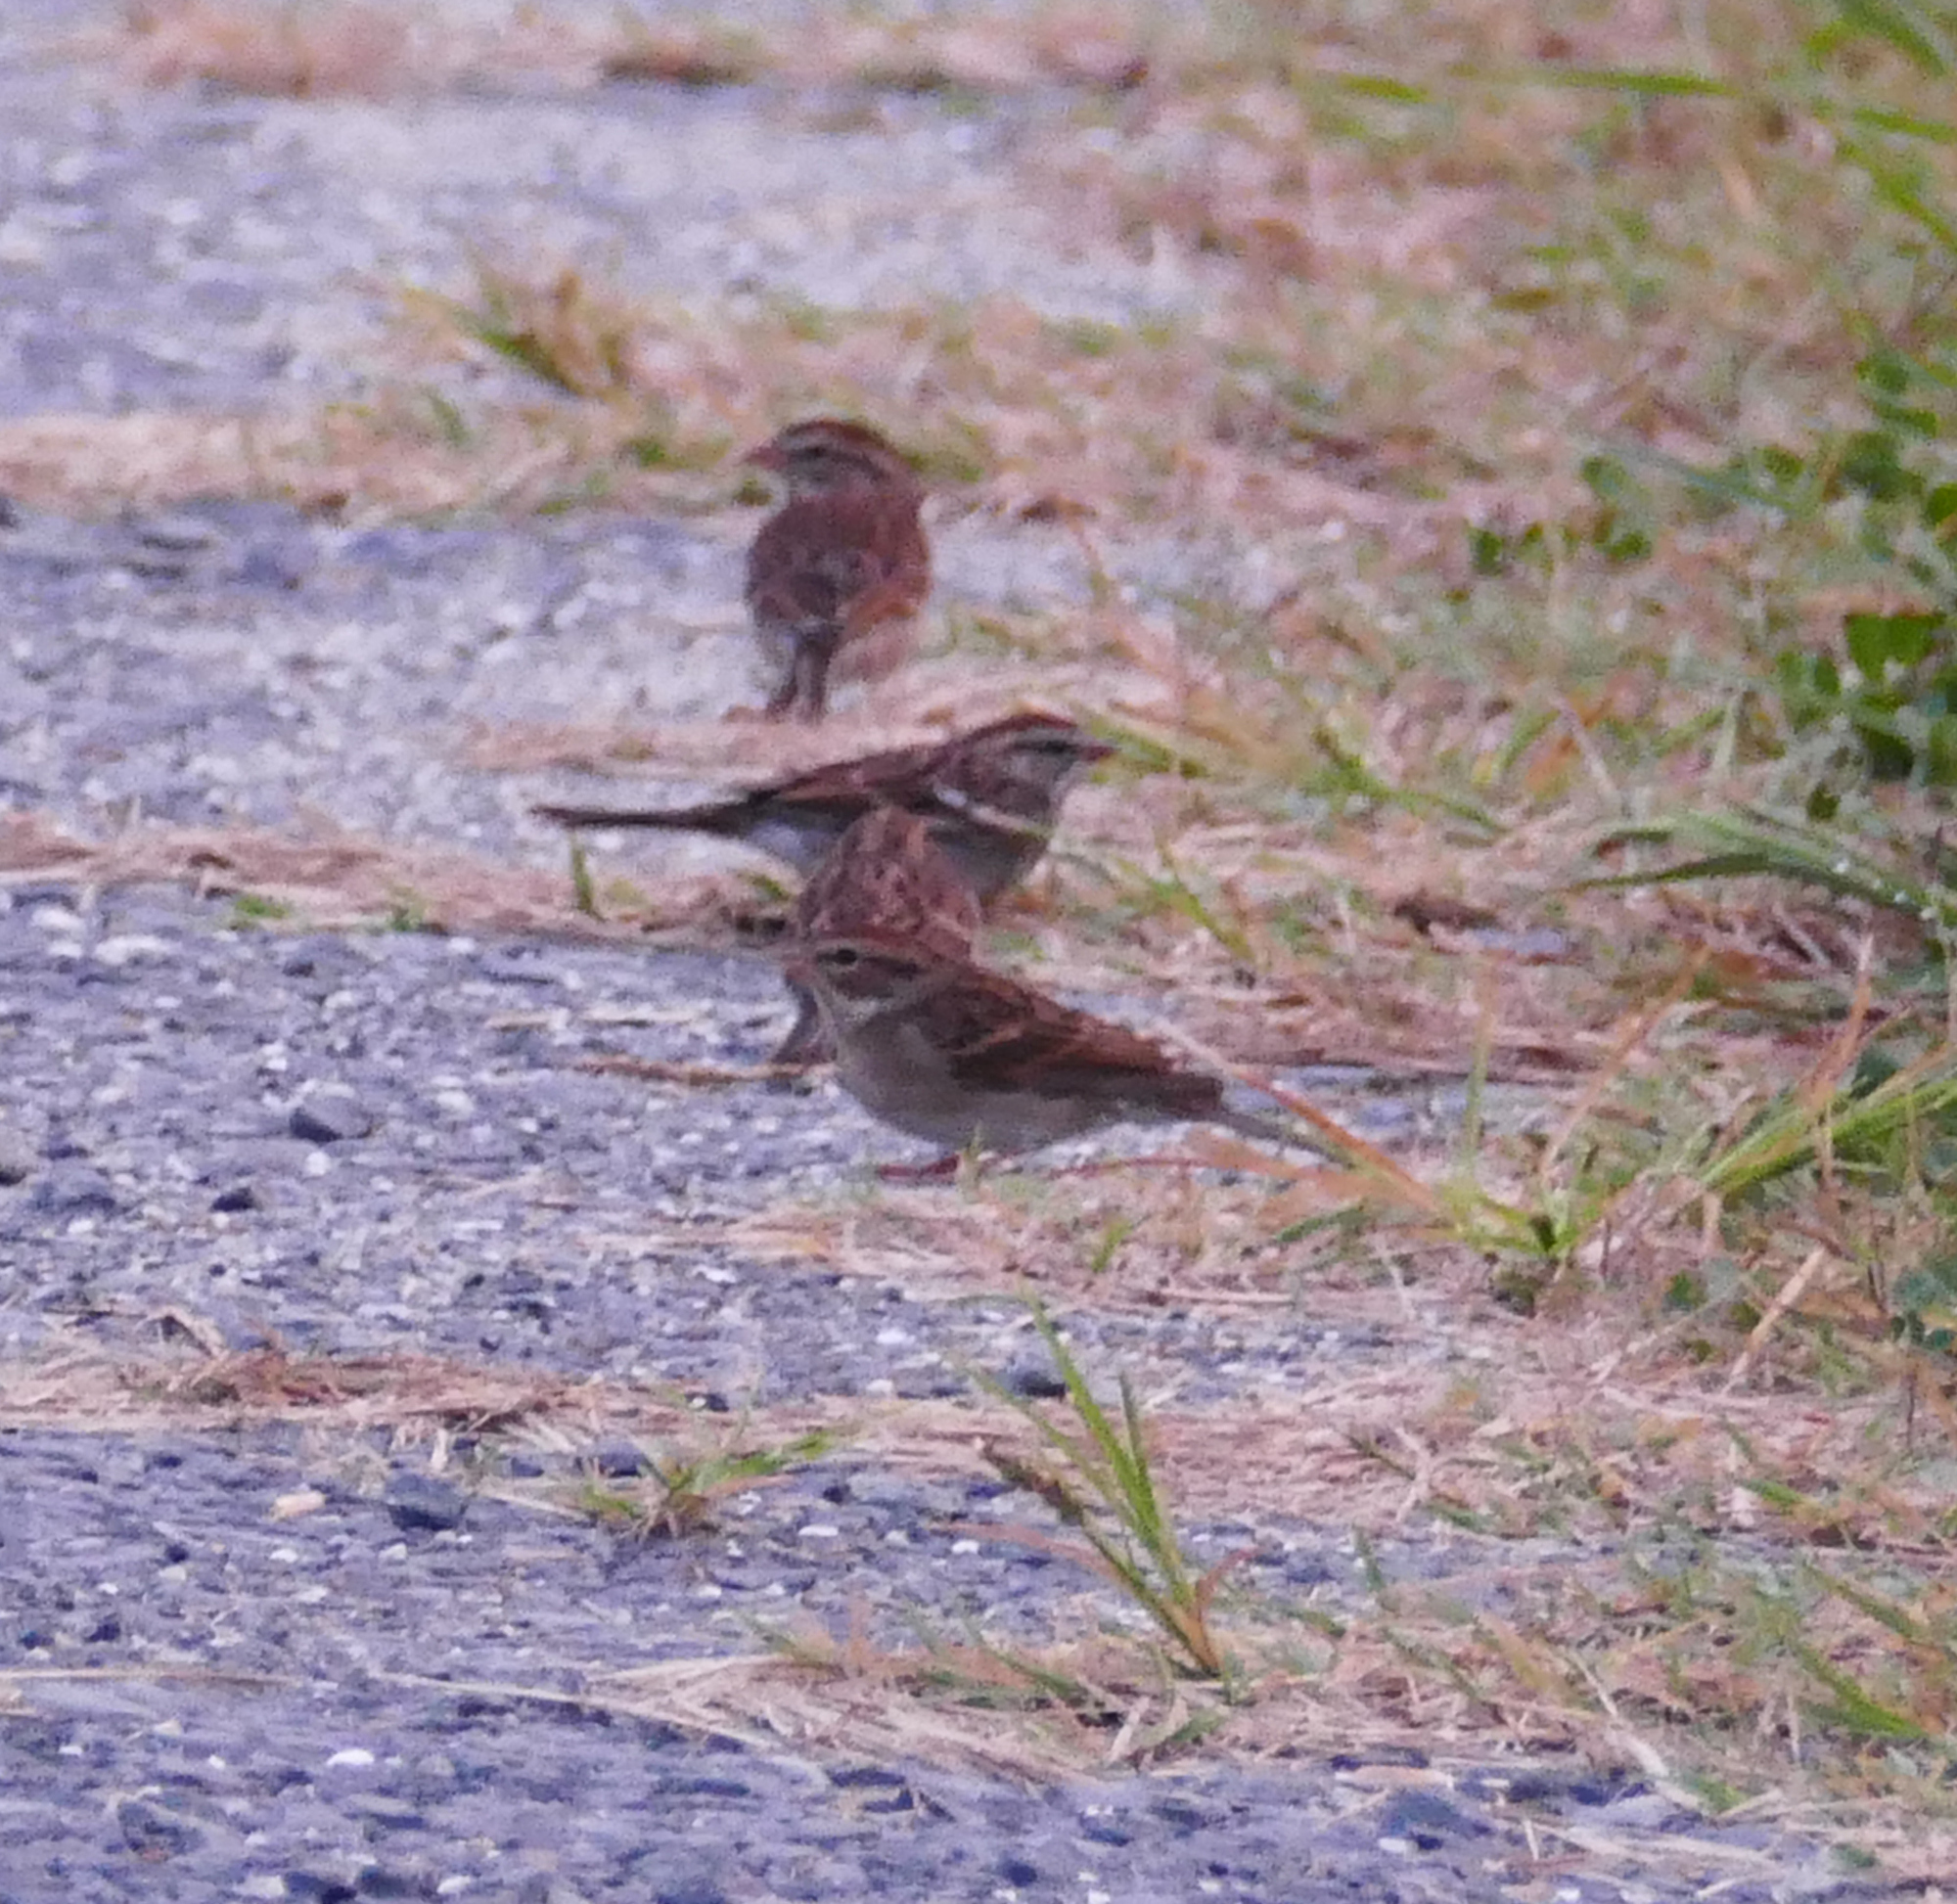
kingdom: Animalia
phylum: Chordata
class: Aves
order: Passeriformes
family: Passerellidae
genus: Spizella
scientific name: Spizella passerina
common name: Chipping sparrow
